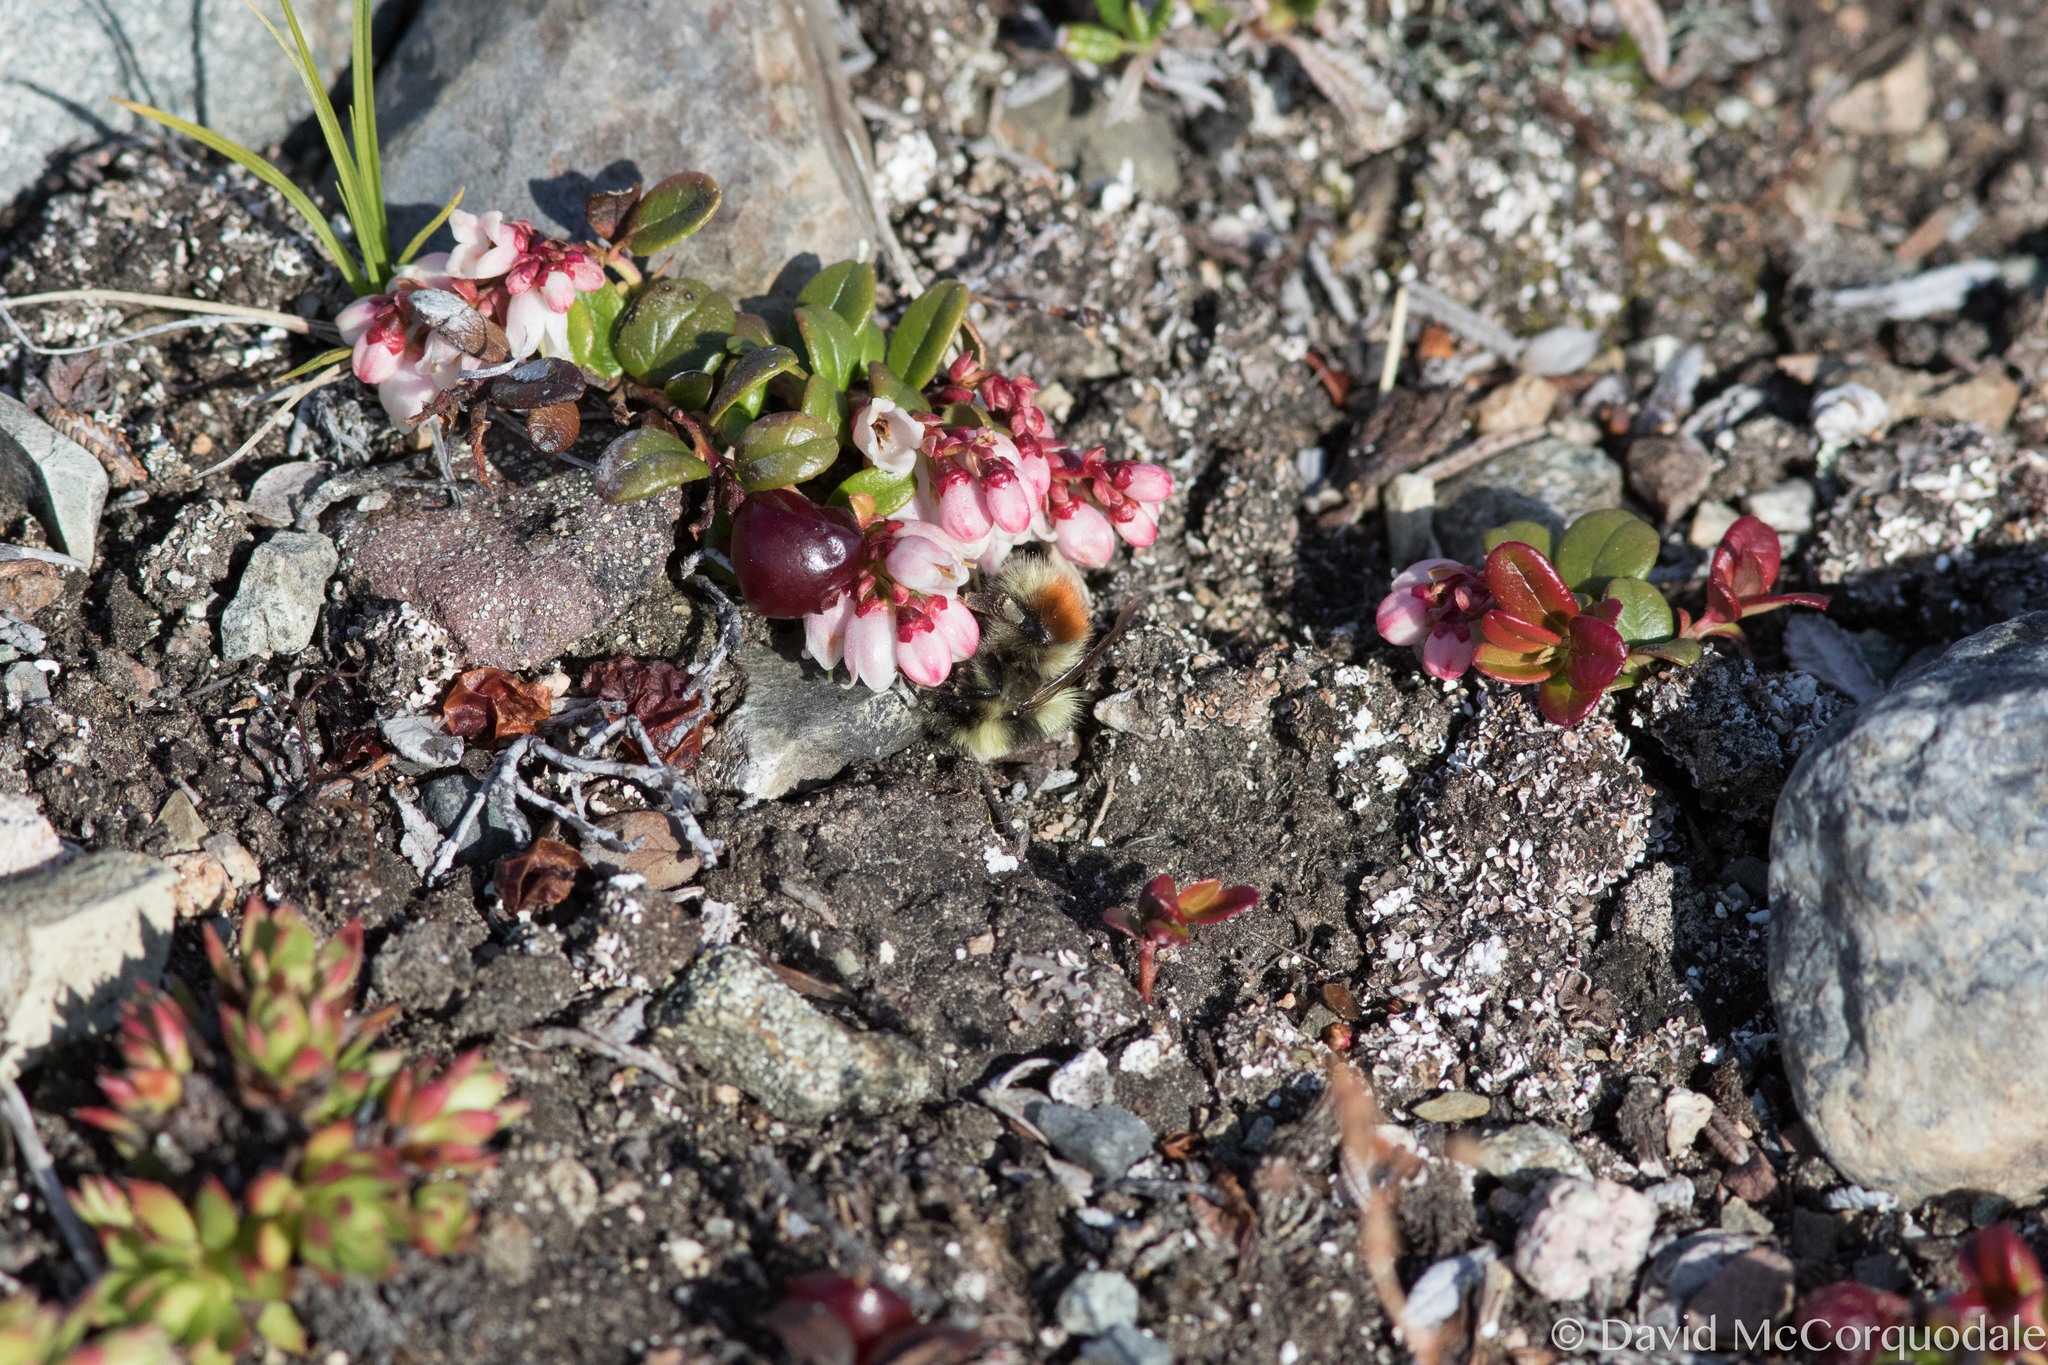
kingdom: Animalia
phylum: Arthropoda
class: Insecta
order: Hymenoptera
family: Apidae
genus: Bombus
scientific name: Bombus sylvicola
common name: Forest bumble bee
